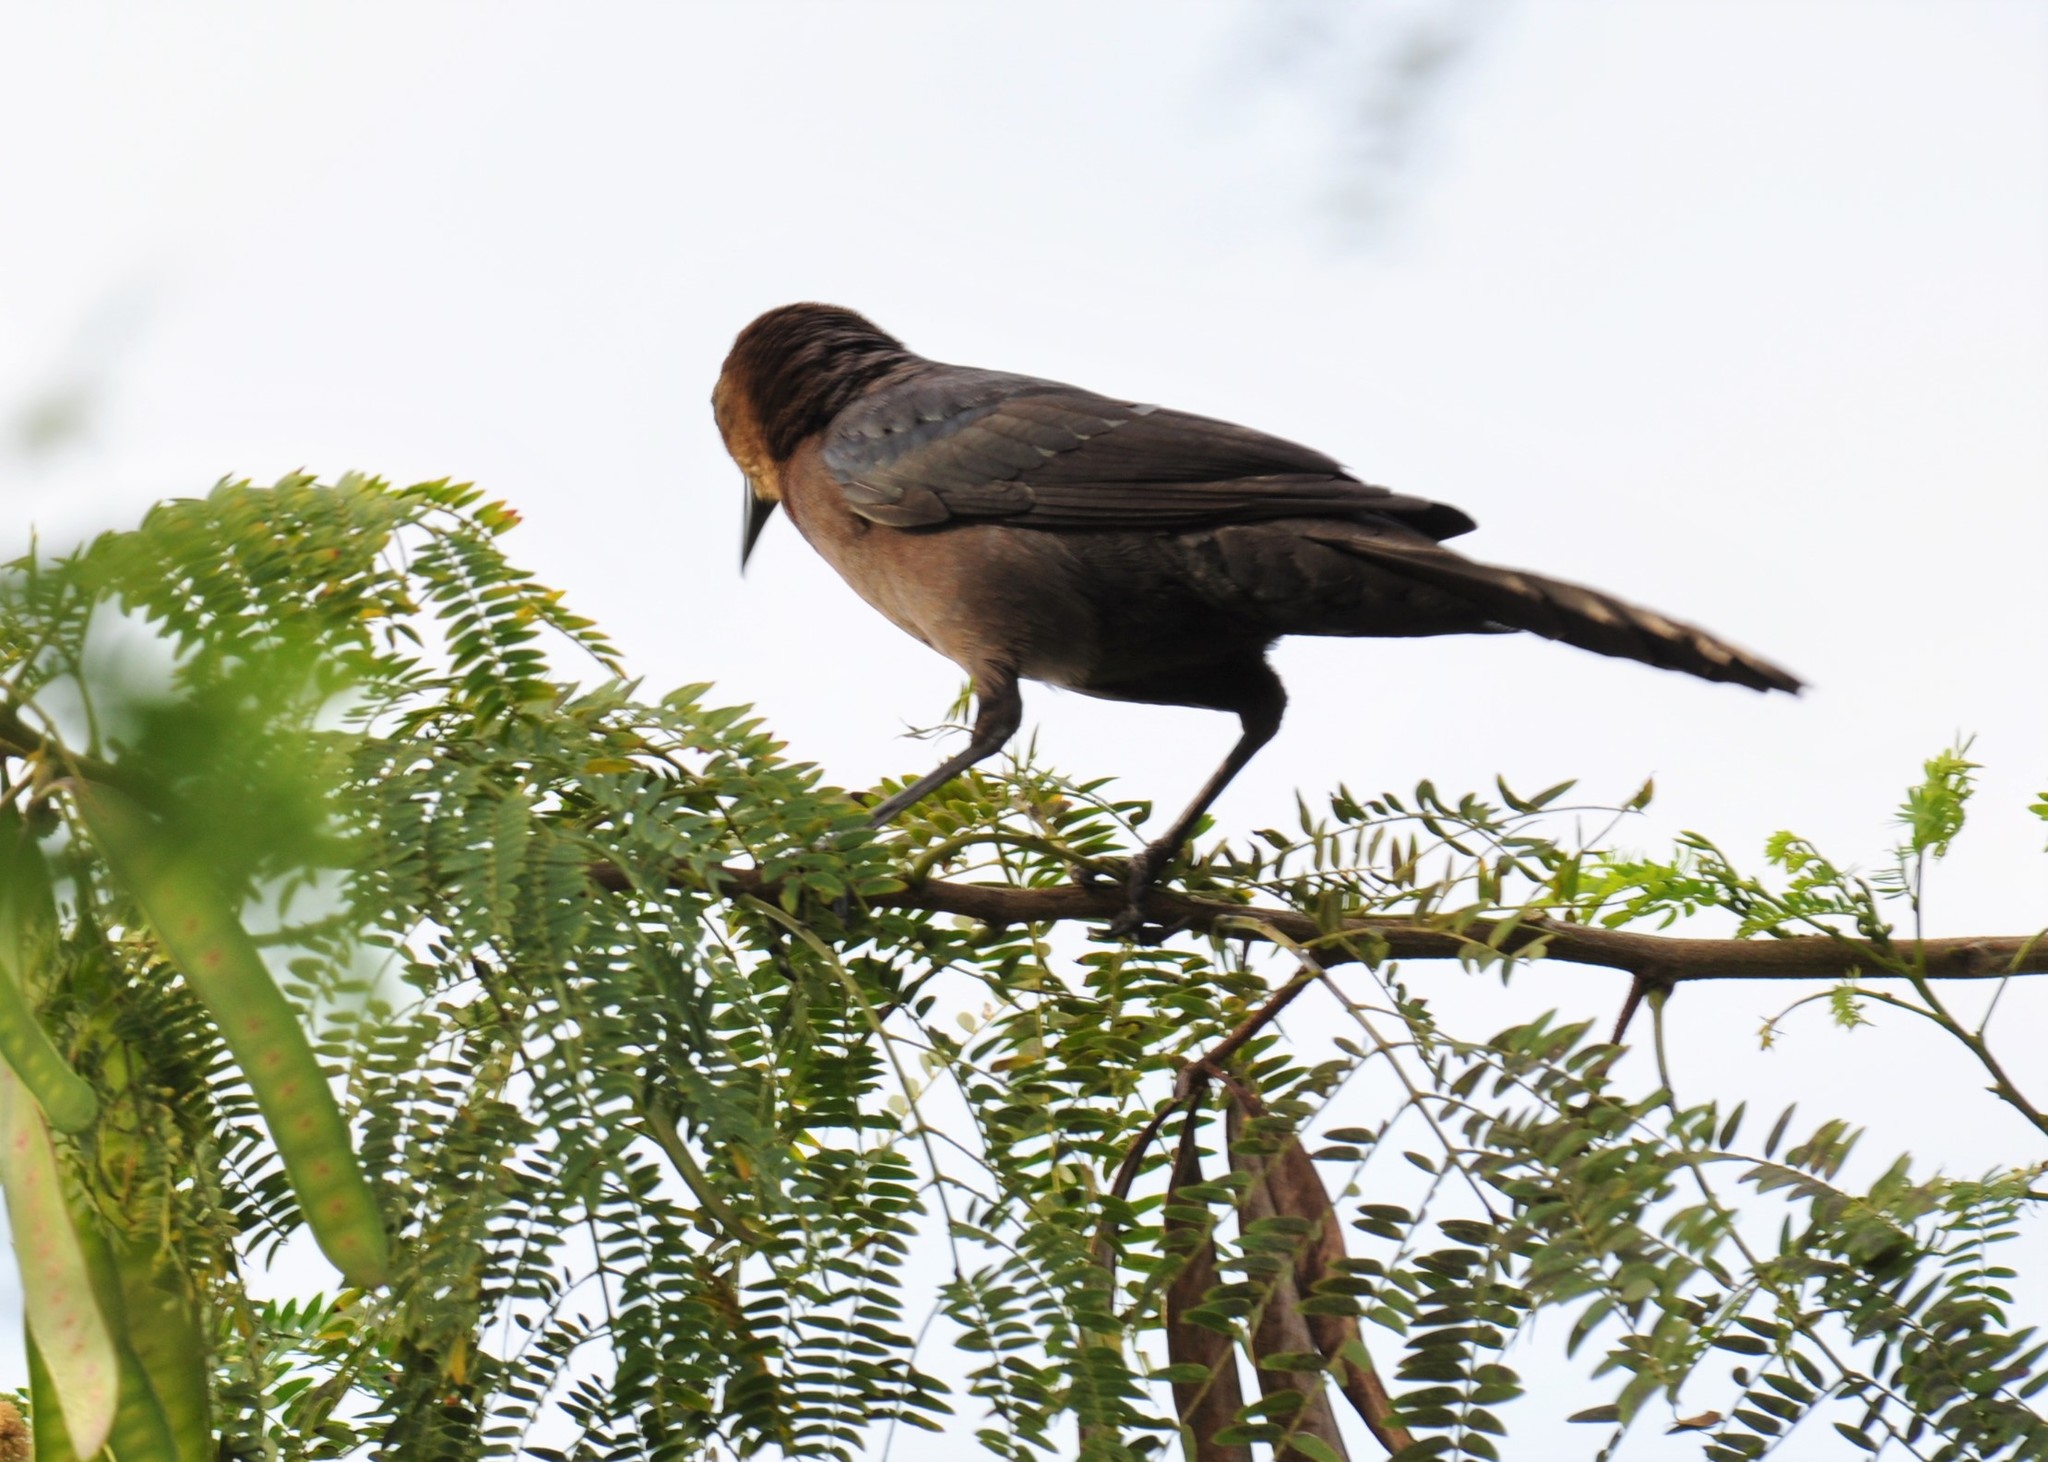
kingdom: Animalia
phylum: Chordata
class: Aves
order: Passeriformes
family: Icteridae
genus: Quiscalus
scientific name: Quiscalus mexicanus
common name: Great-tailed grackle
